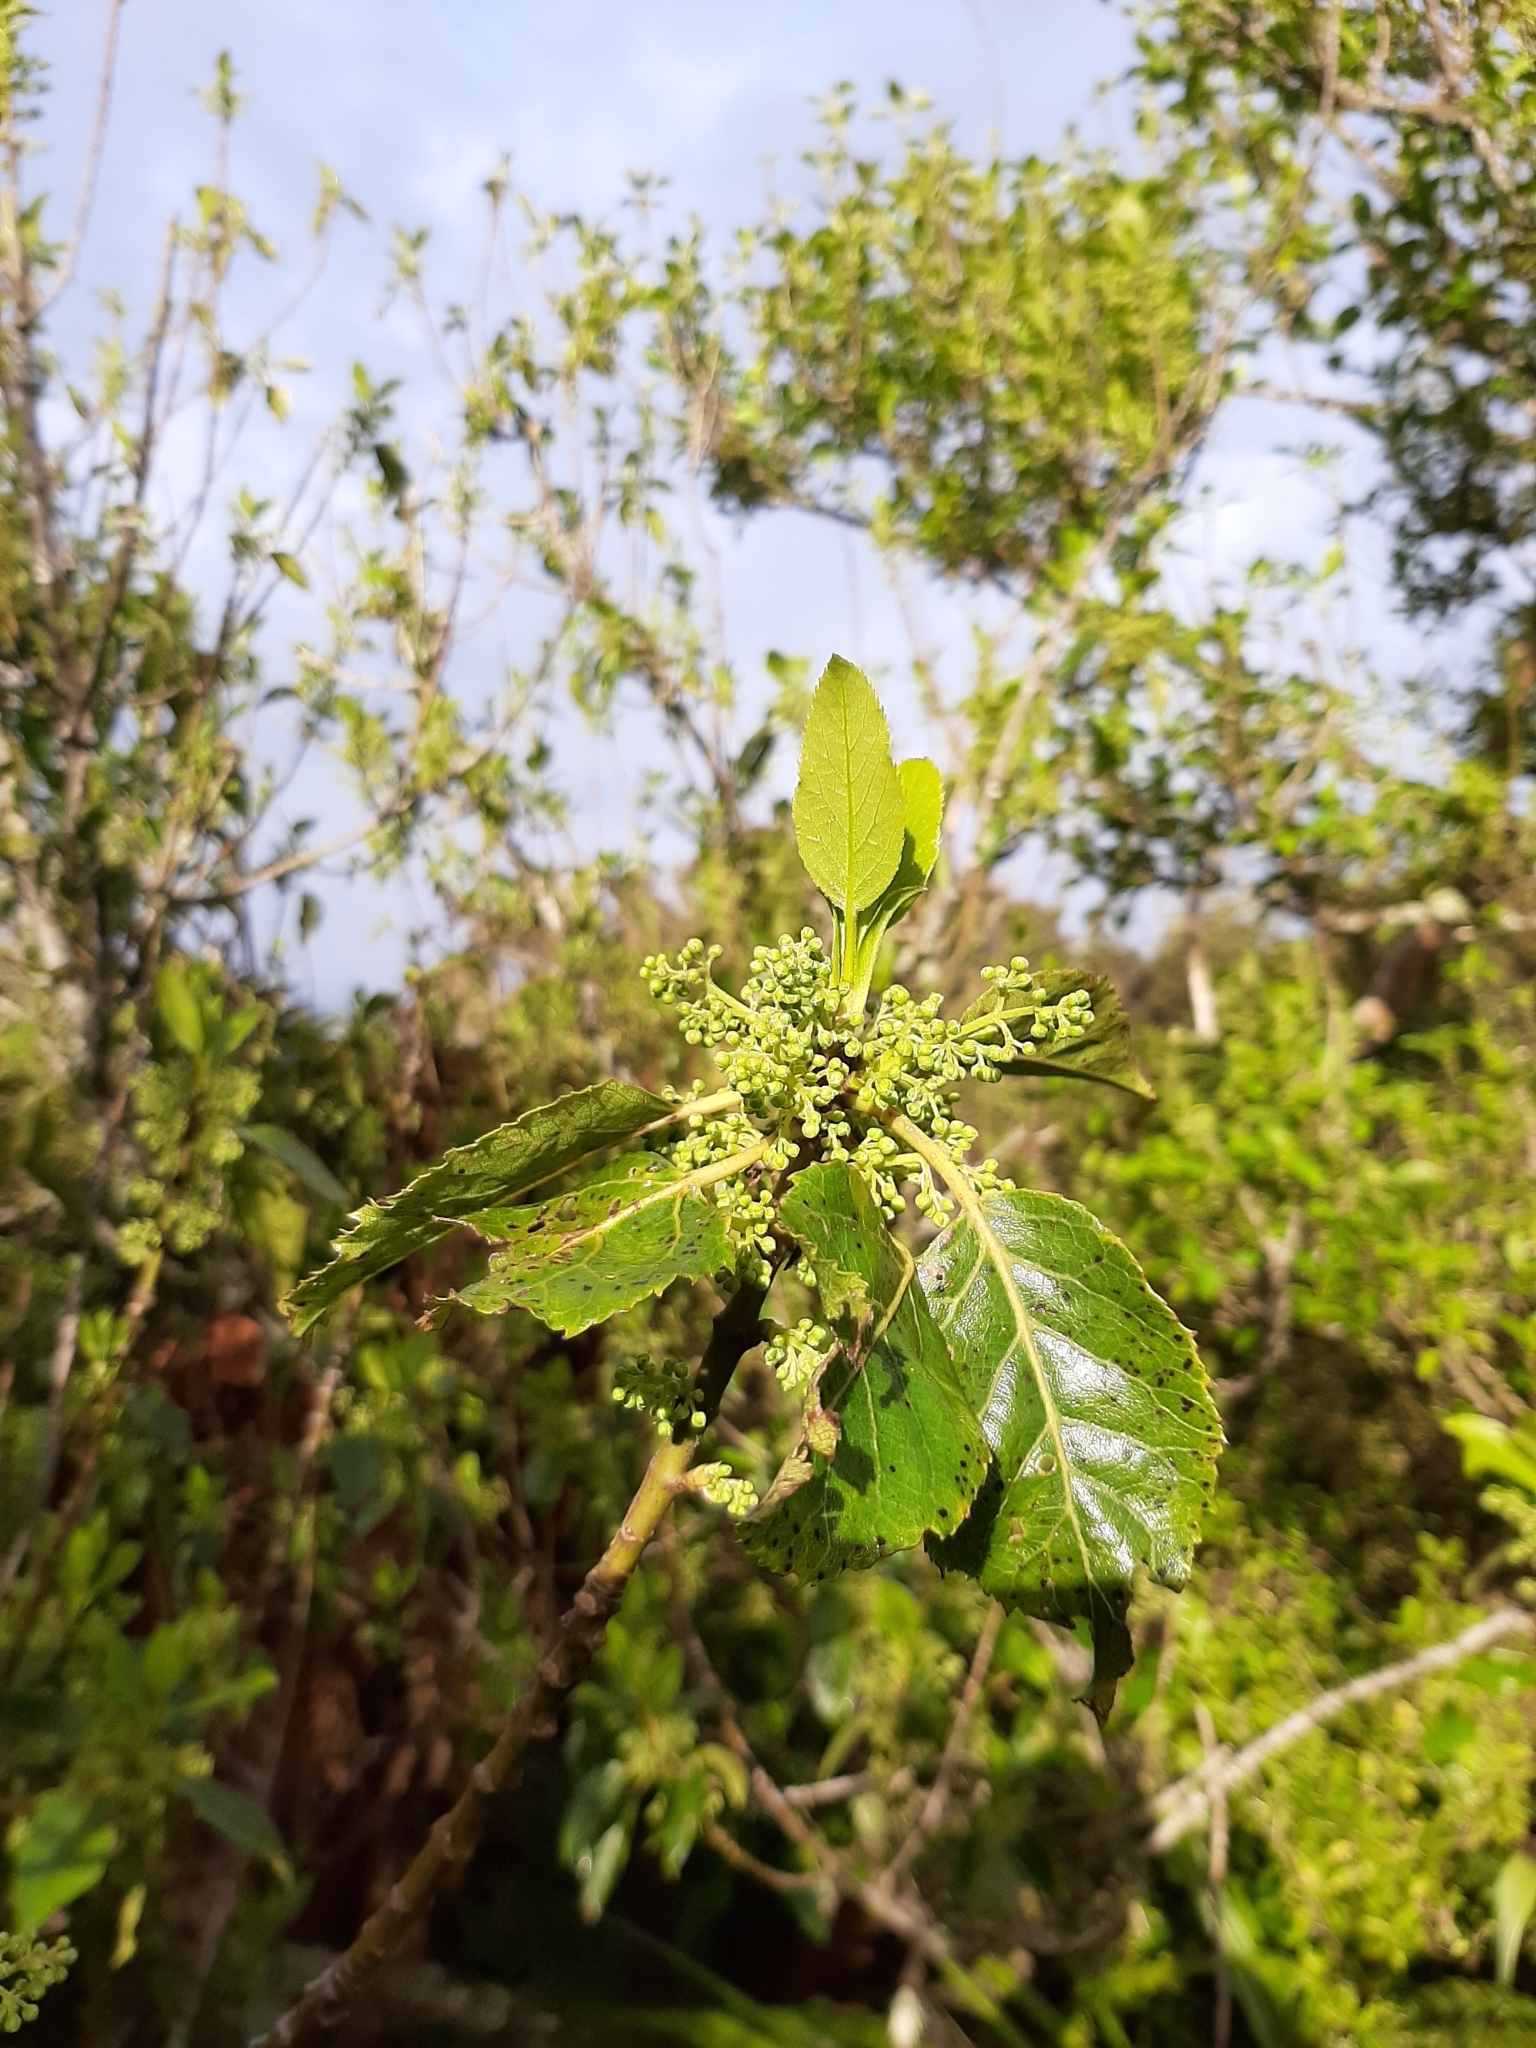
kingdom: Plantae
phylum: Tracheophyta
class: Magnoliopsida
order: Oxalidales
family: Elaeocarpaceae
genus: Aristotelia
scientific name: Aristotelia serrata
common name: New zealand wineberry
